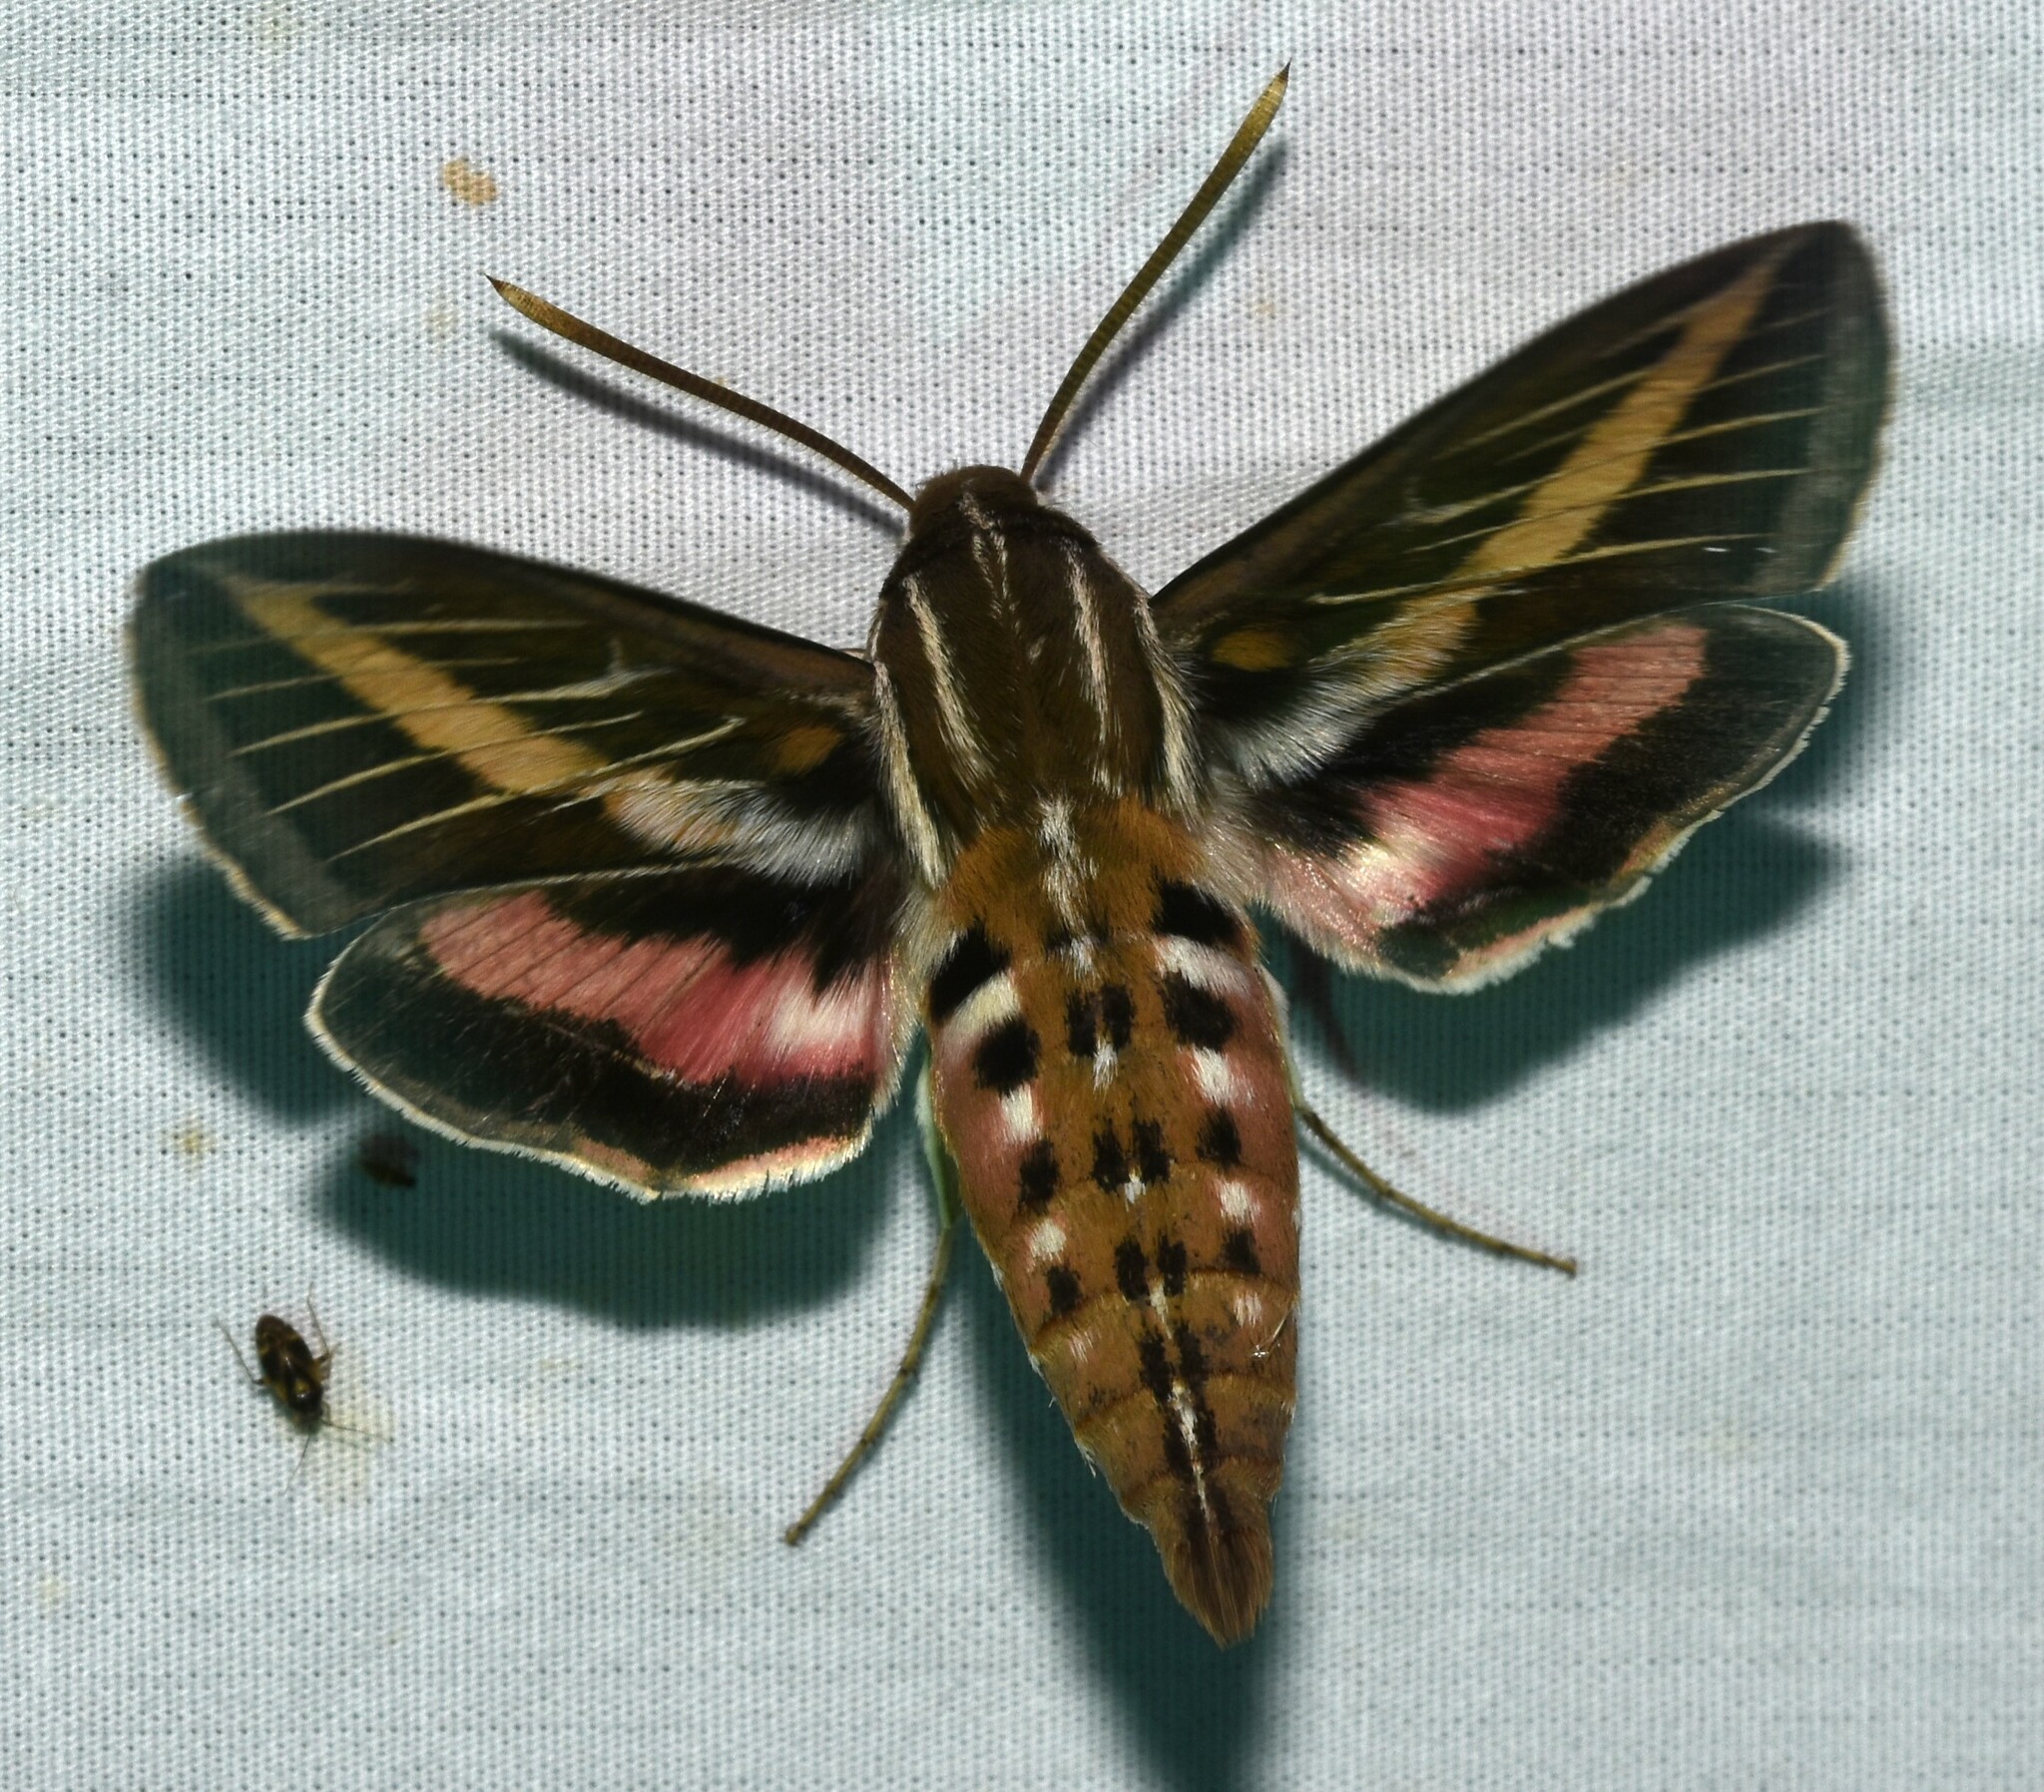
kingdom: Animalia
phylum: Arthropoda
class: Insecta
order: Lepidoptera
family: Sphingidae
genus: Hyles
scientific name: Hyles lineata
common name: White-lined sphinx
